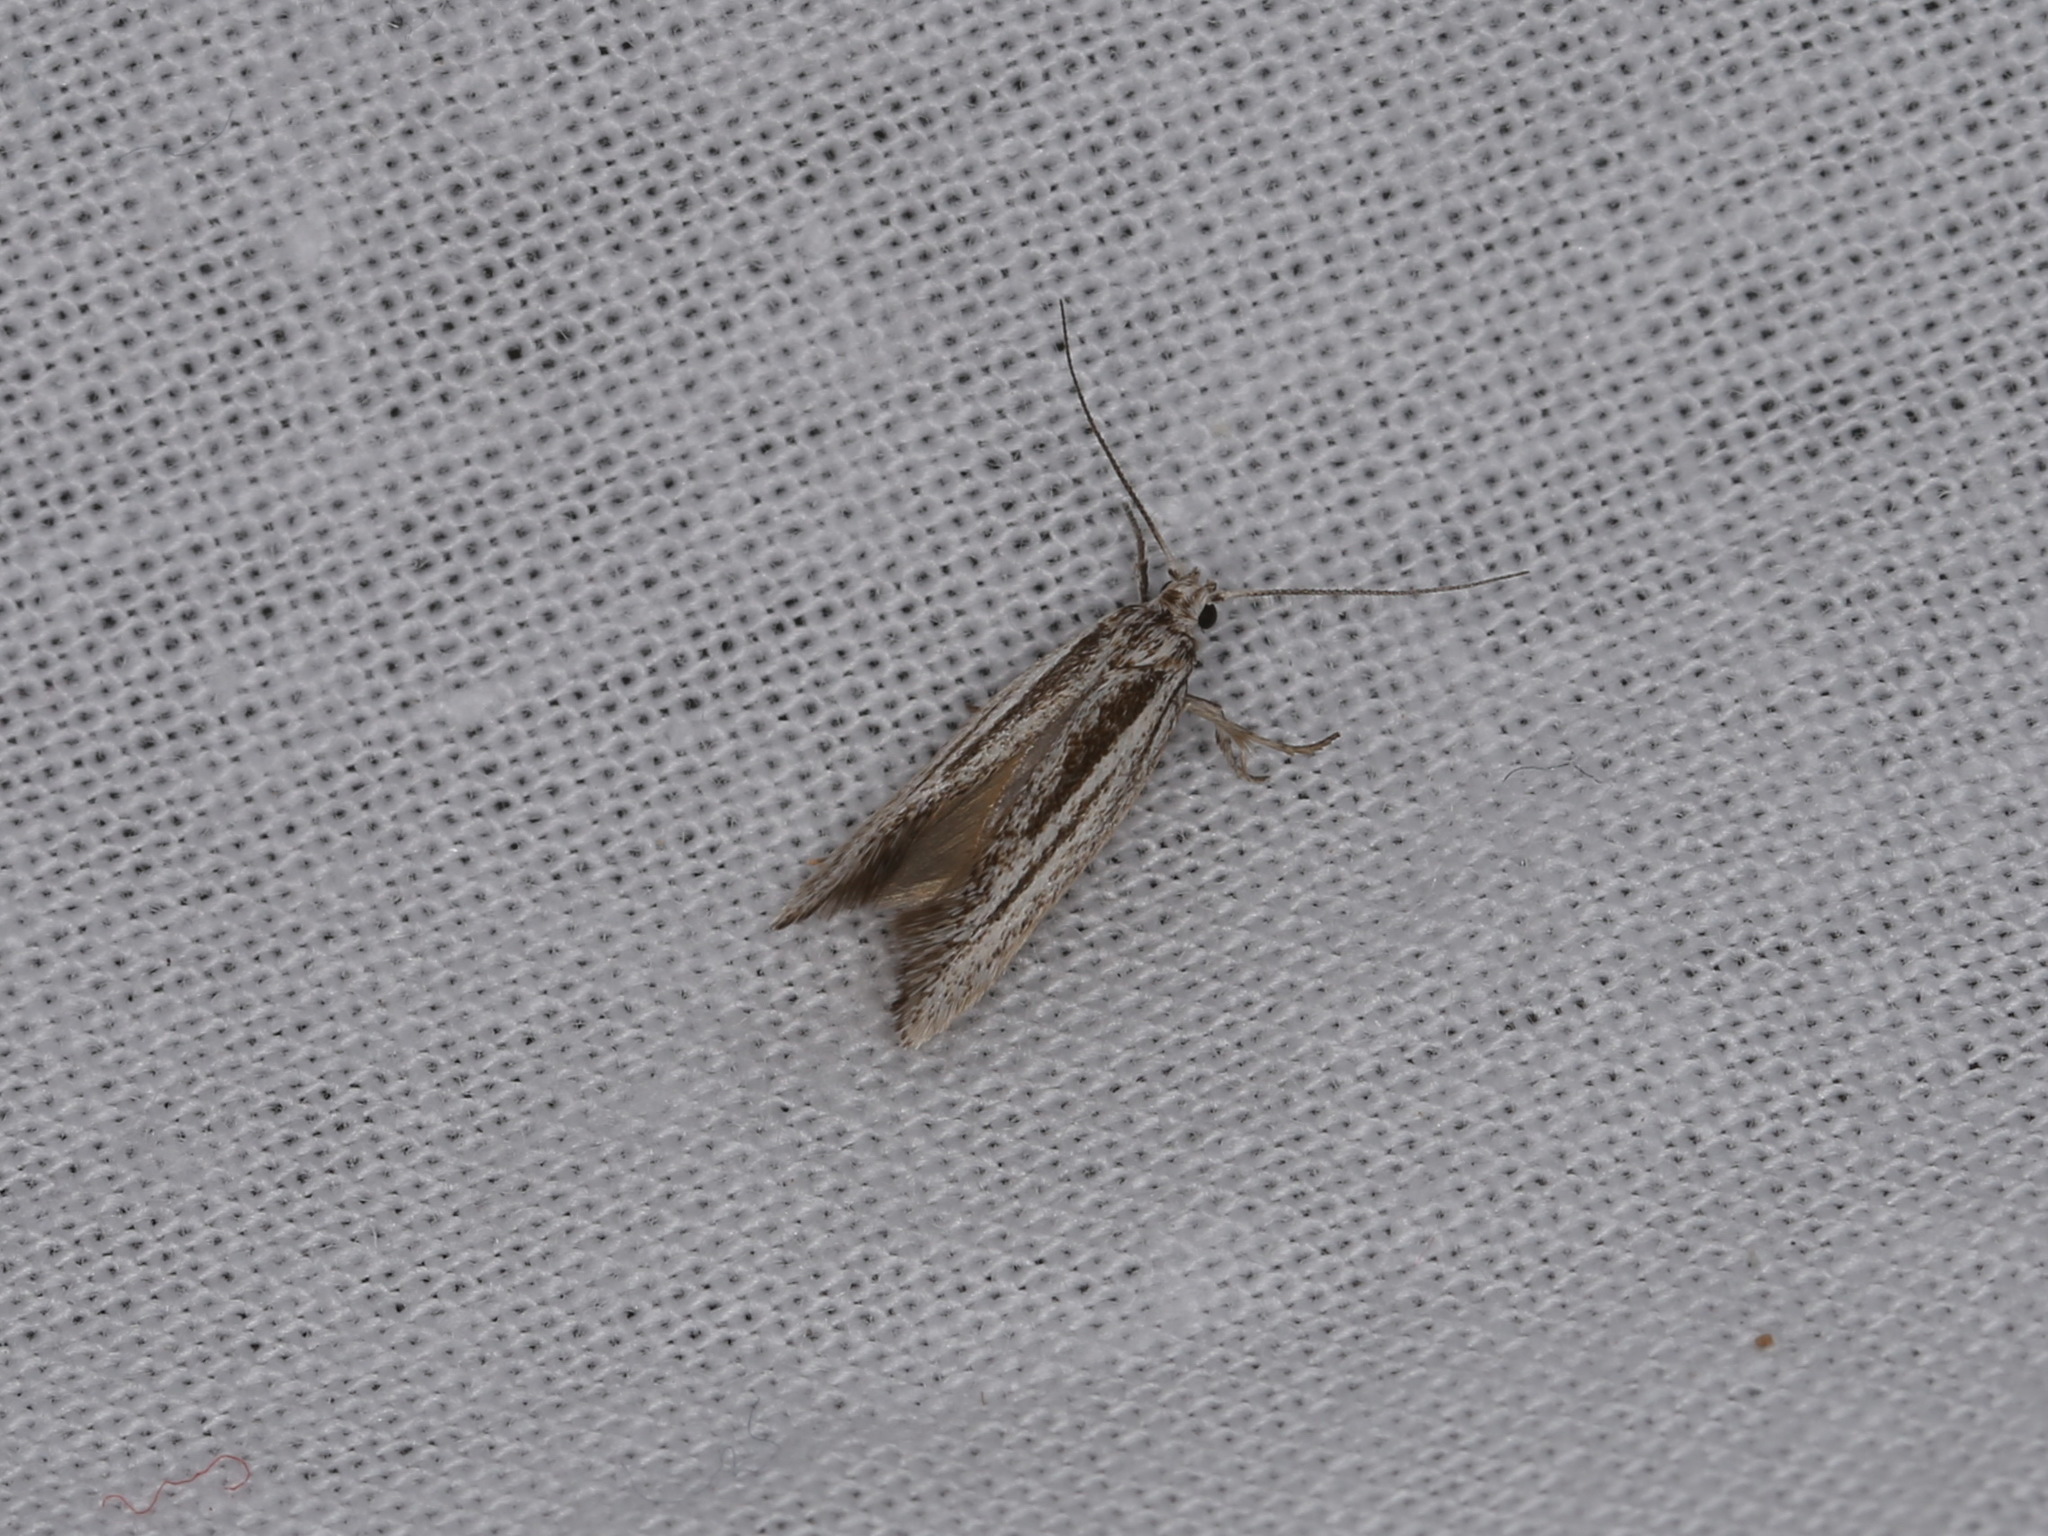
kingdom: Animalia
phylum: Arthropoda
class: Insecta
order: Lepidoptera
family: Oecophoridae
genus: Antipterna
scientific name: Antipterna ptychomochla
